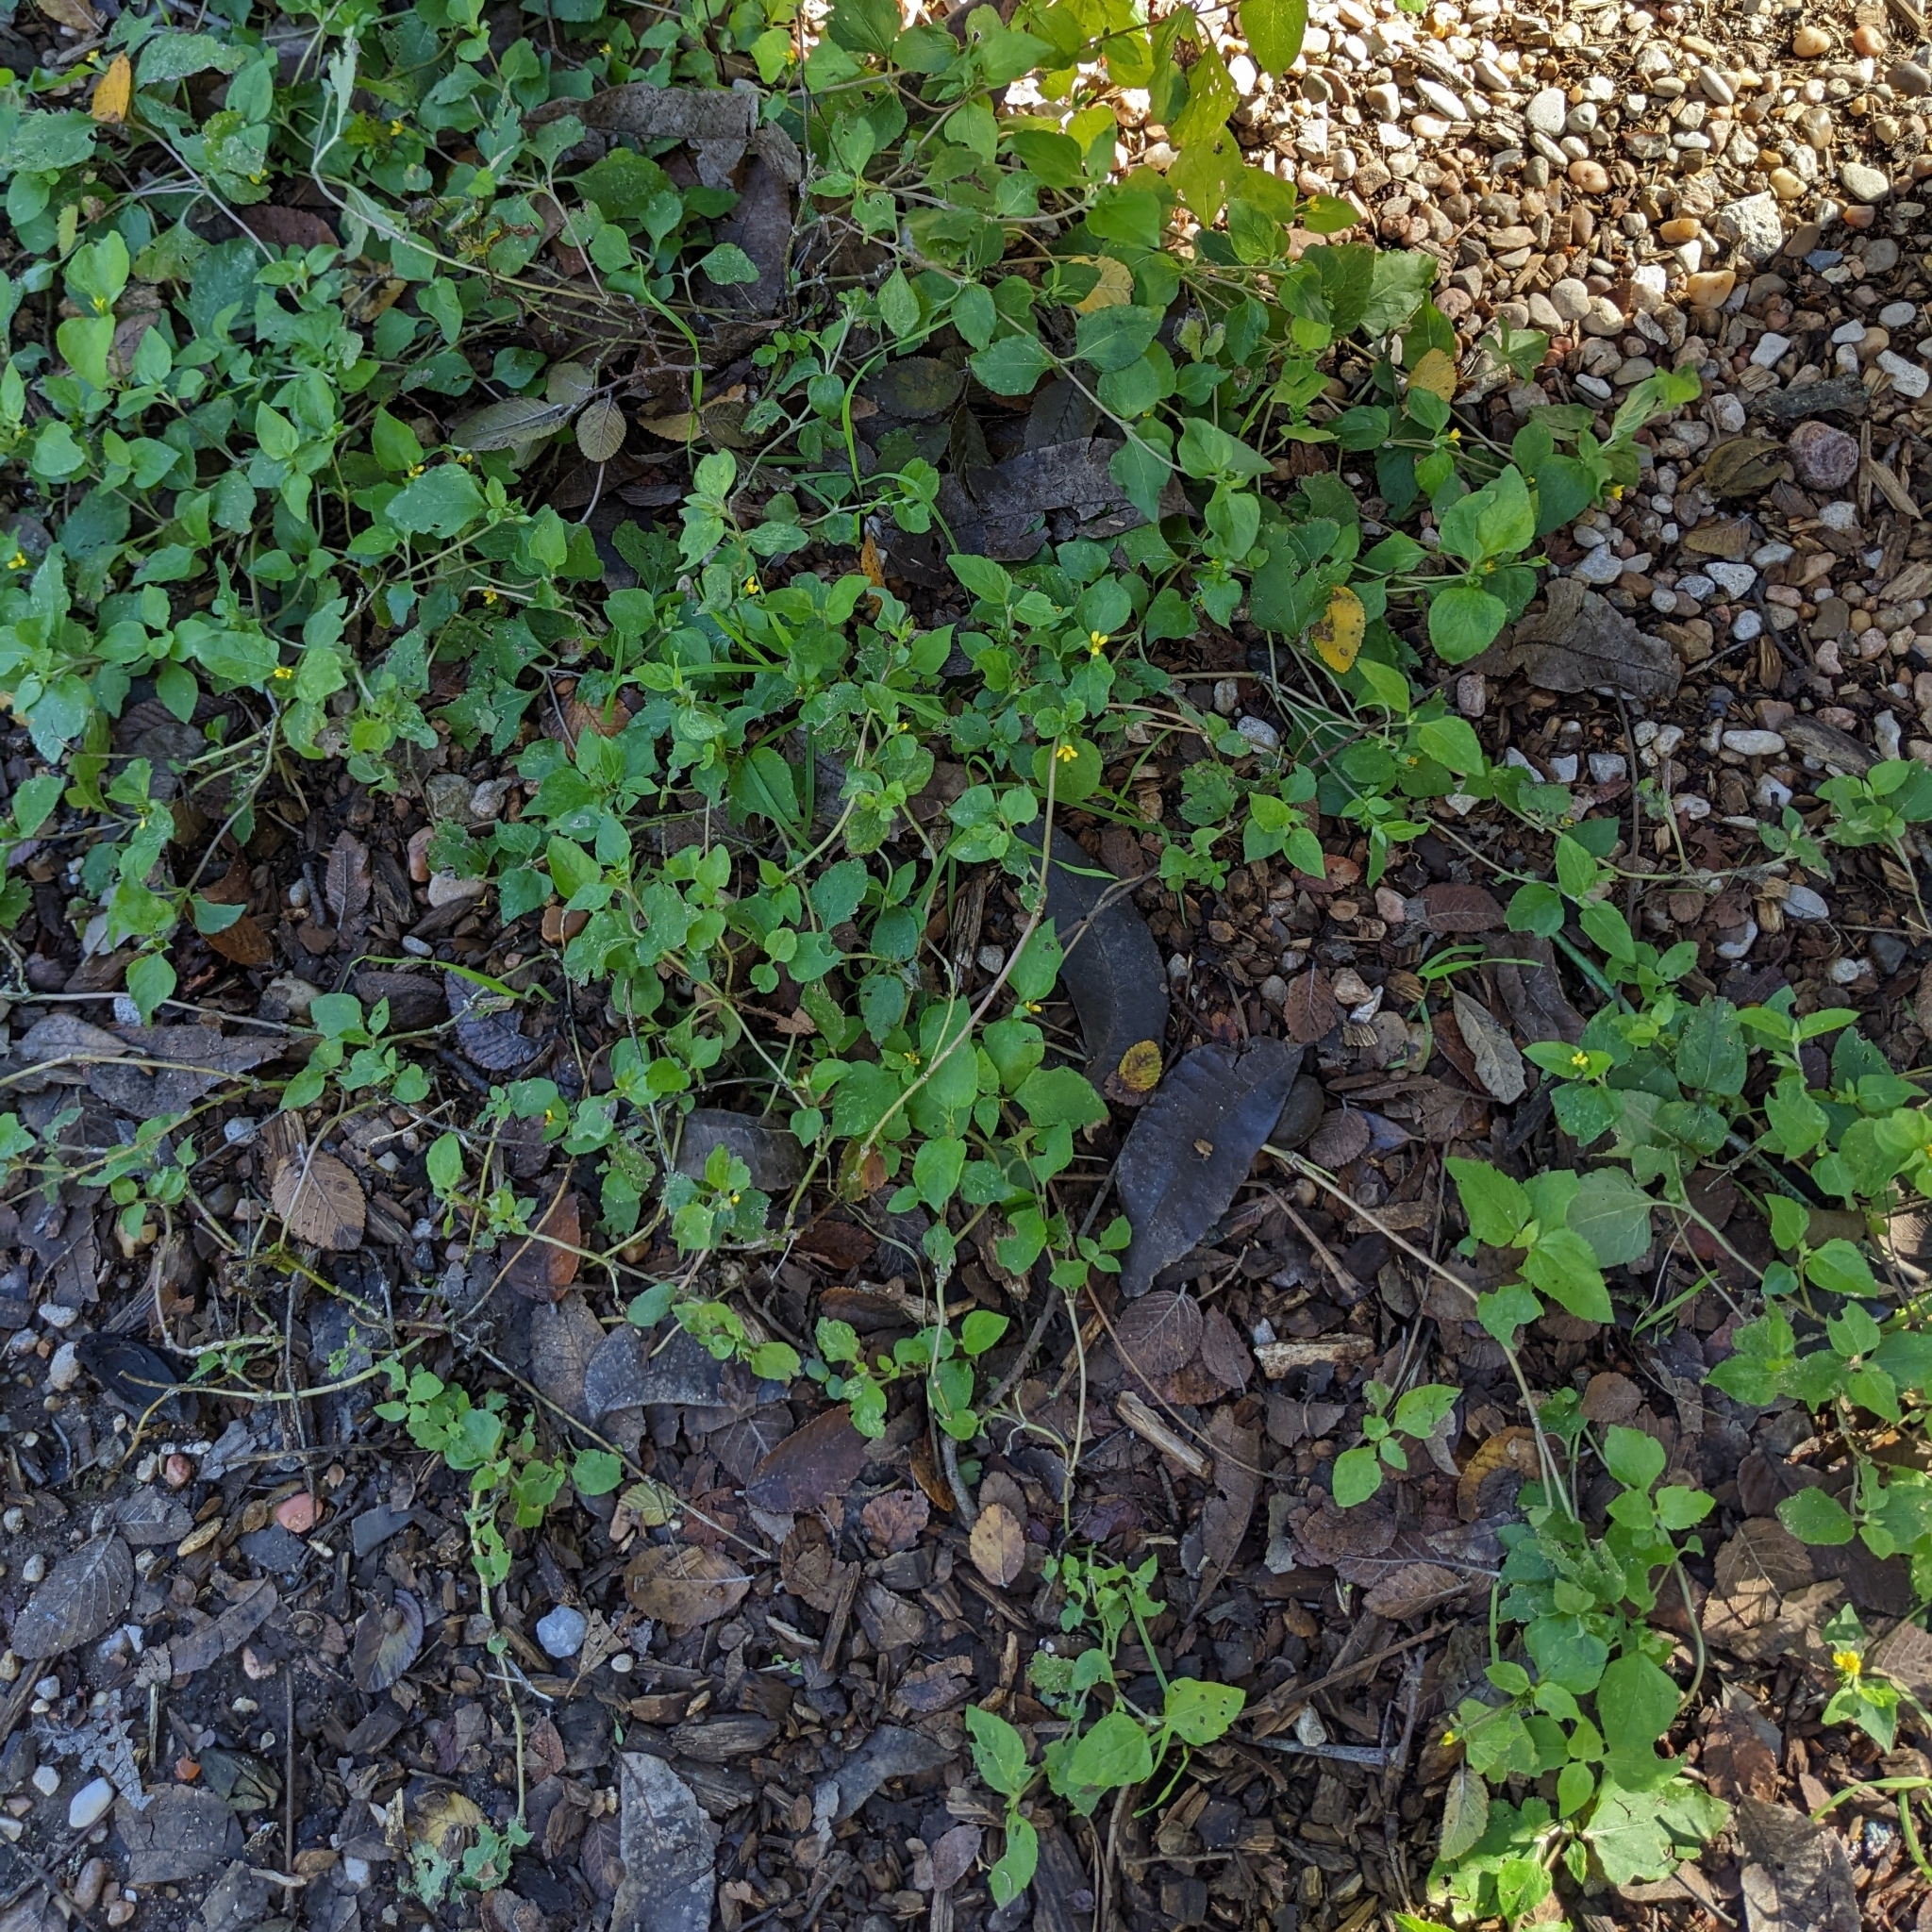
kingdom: Plantae
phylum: Tracheophyta
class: Magnoliopsida
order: Asterales
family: Asteraceae
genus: Calyptocarpus
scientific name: Calyptocarpus vialis
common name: Straggler daisy
